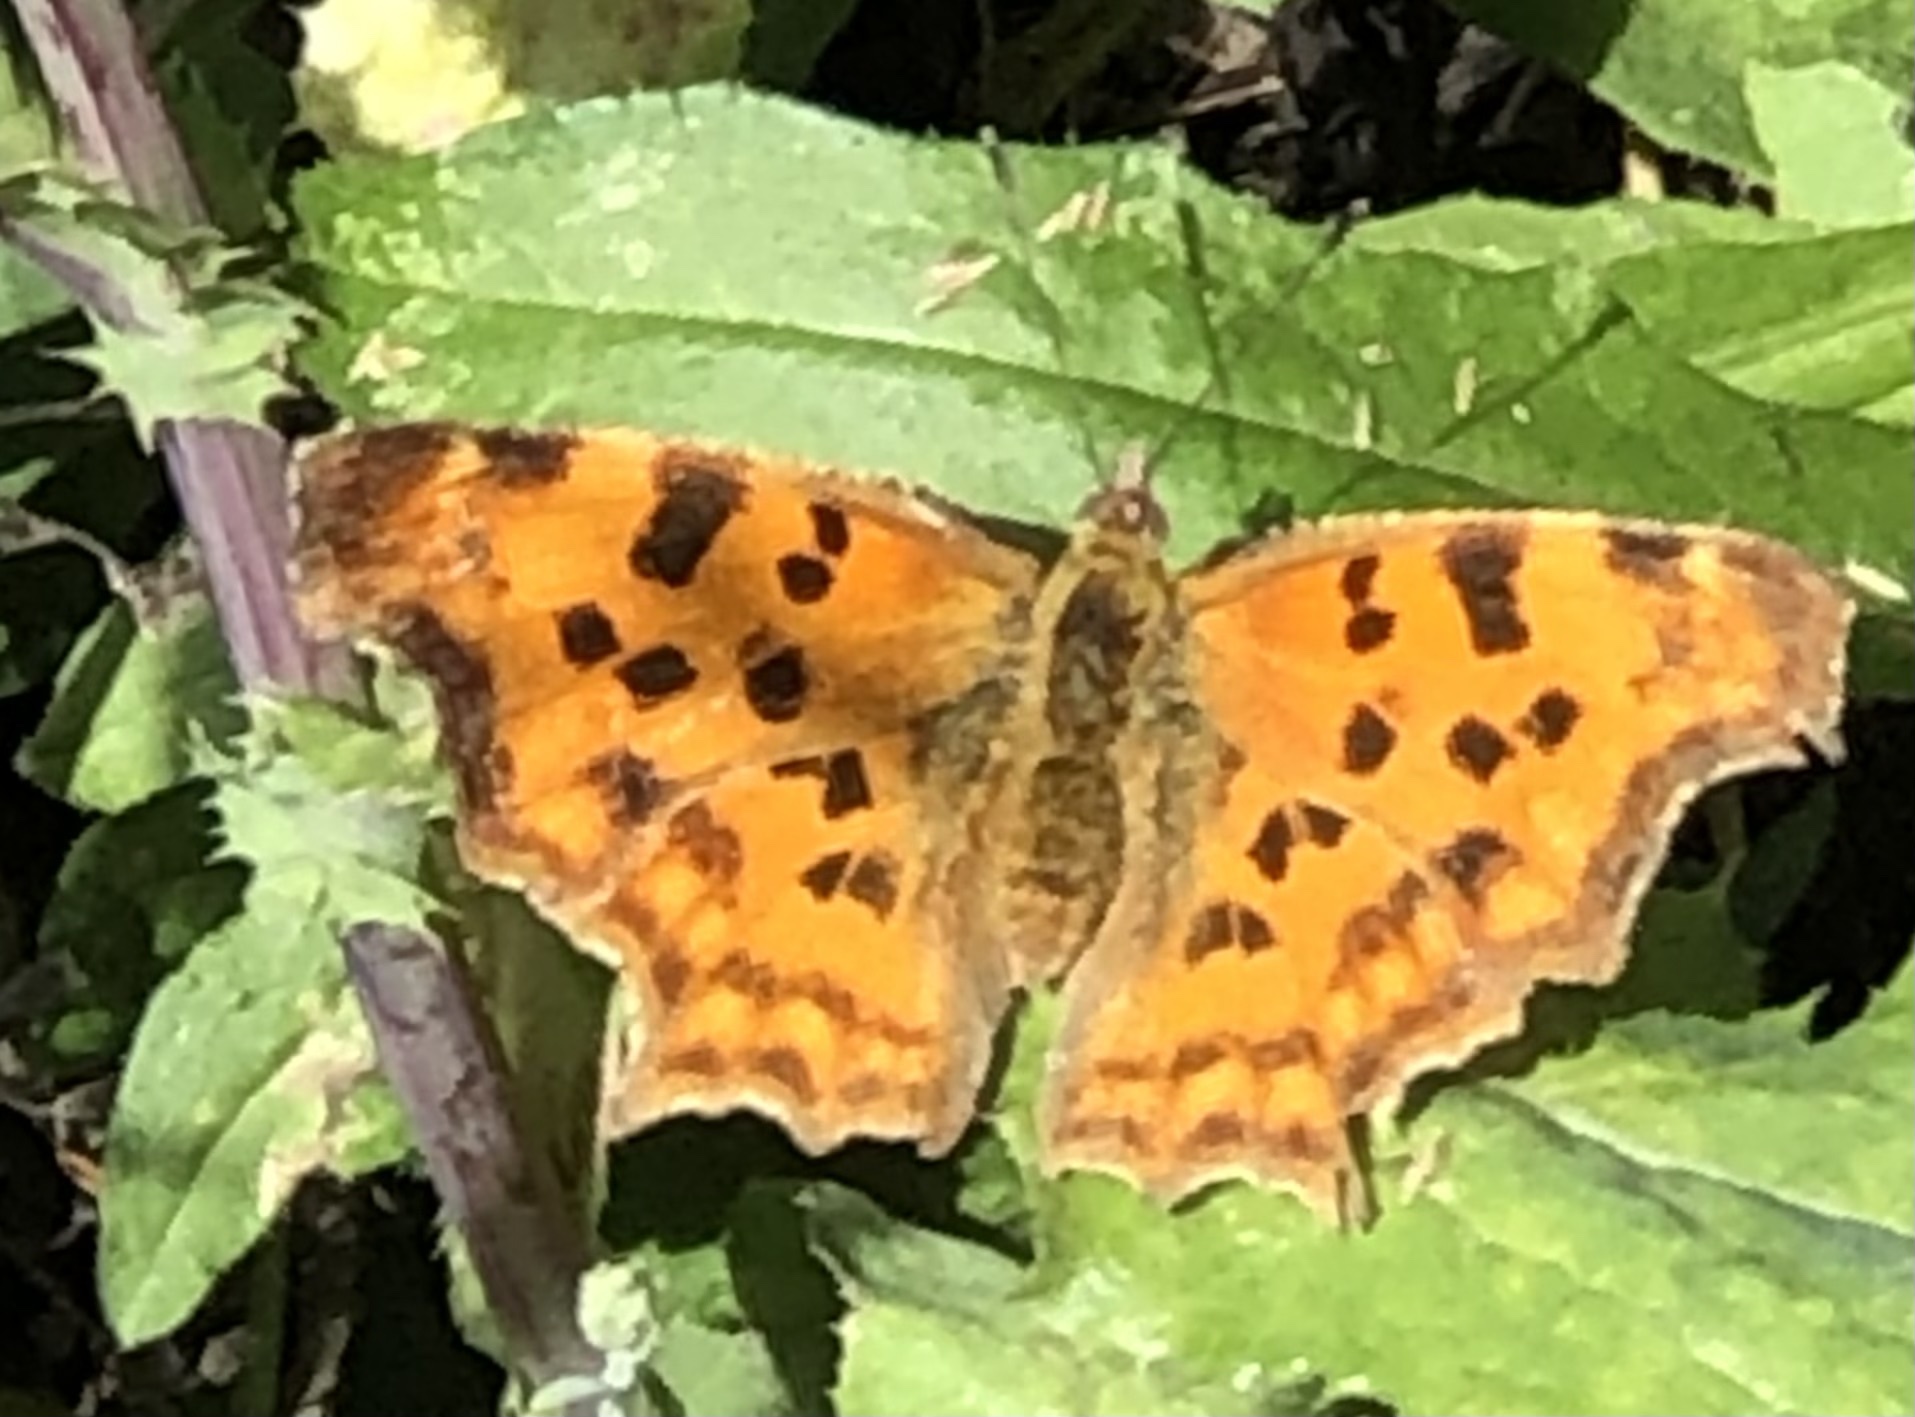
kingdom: Animalia
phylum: Arthropoda
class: Insecta
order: Lepidoptera
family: Nymphalidae
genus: Polygonia
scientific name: Polygonia c-album
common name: Comma
